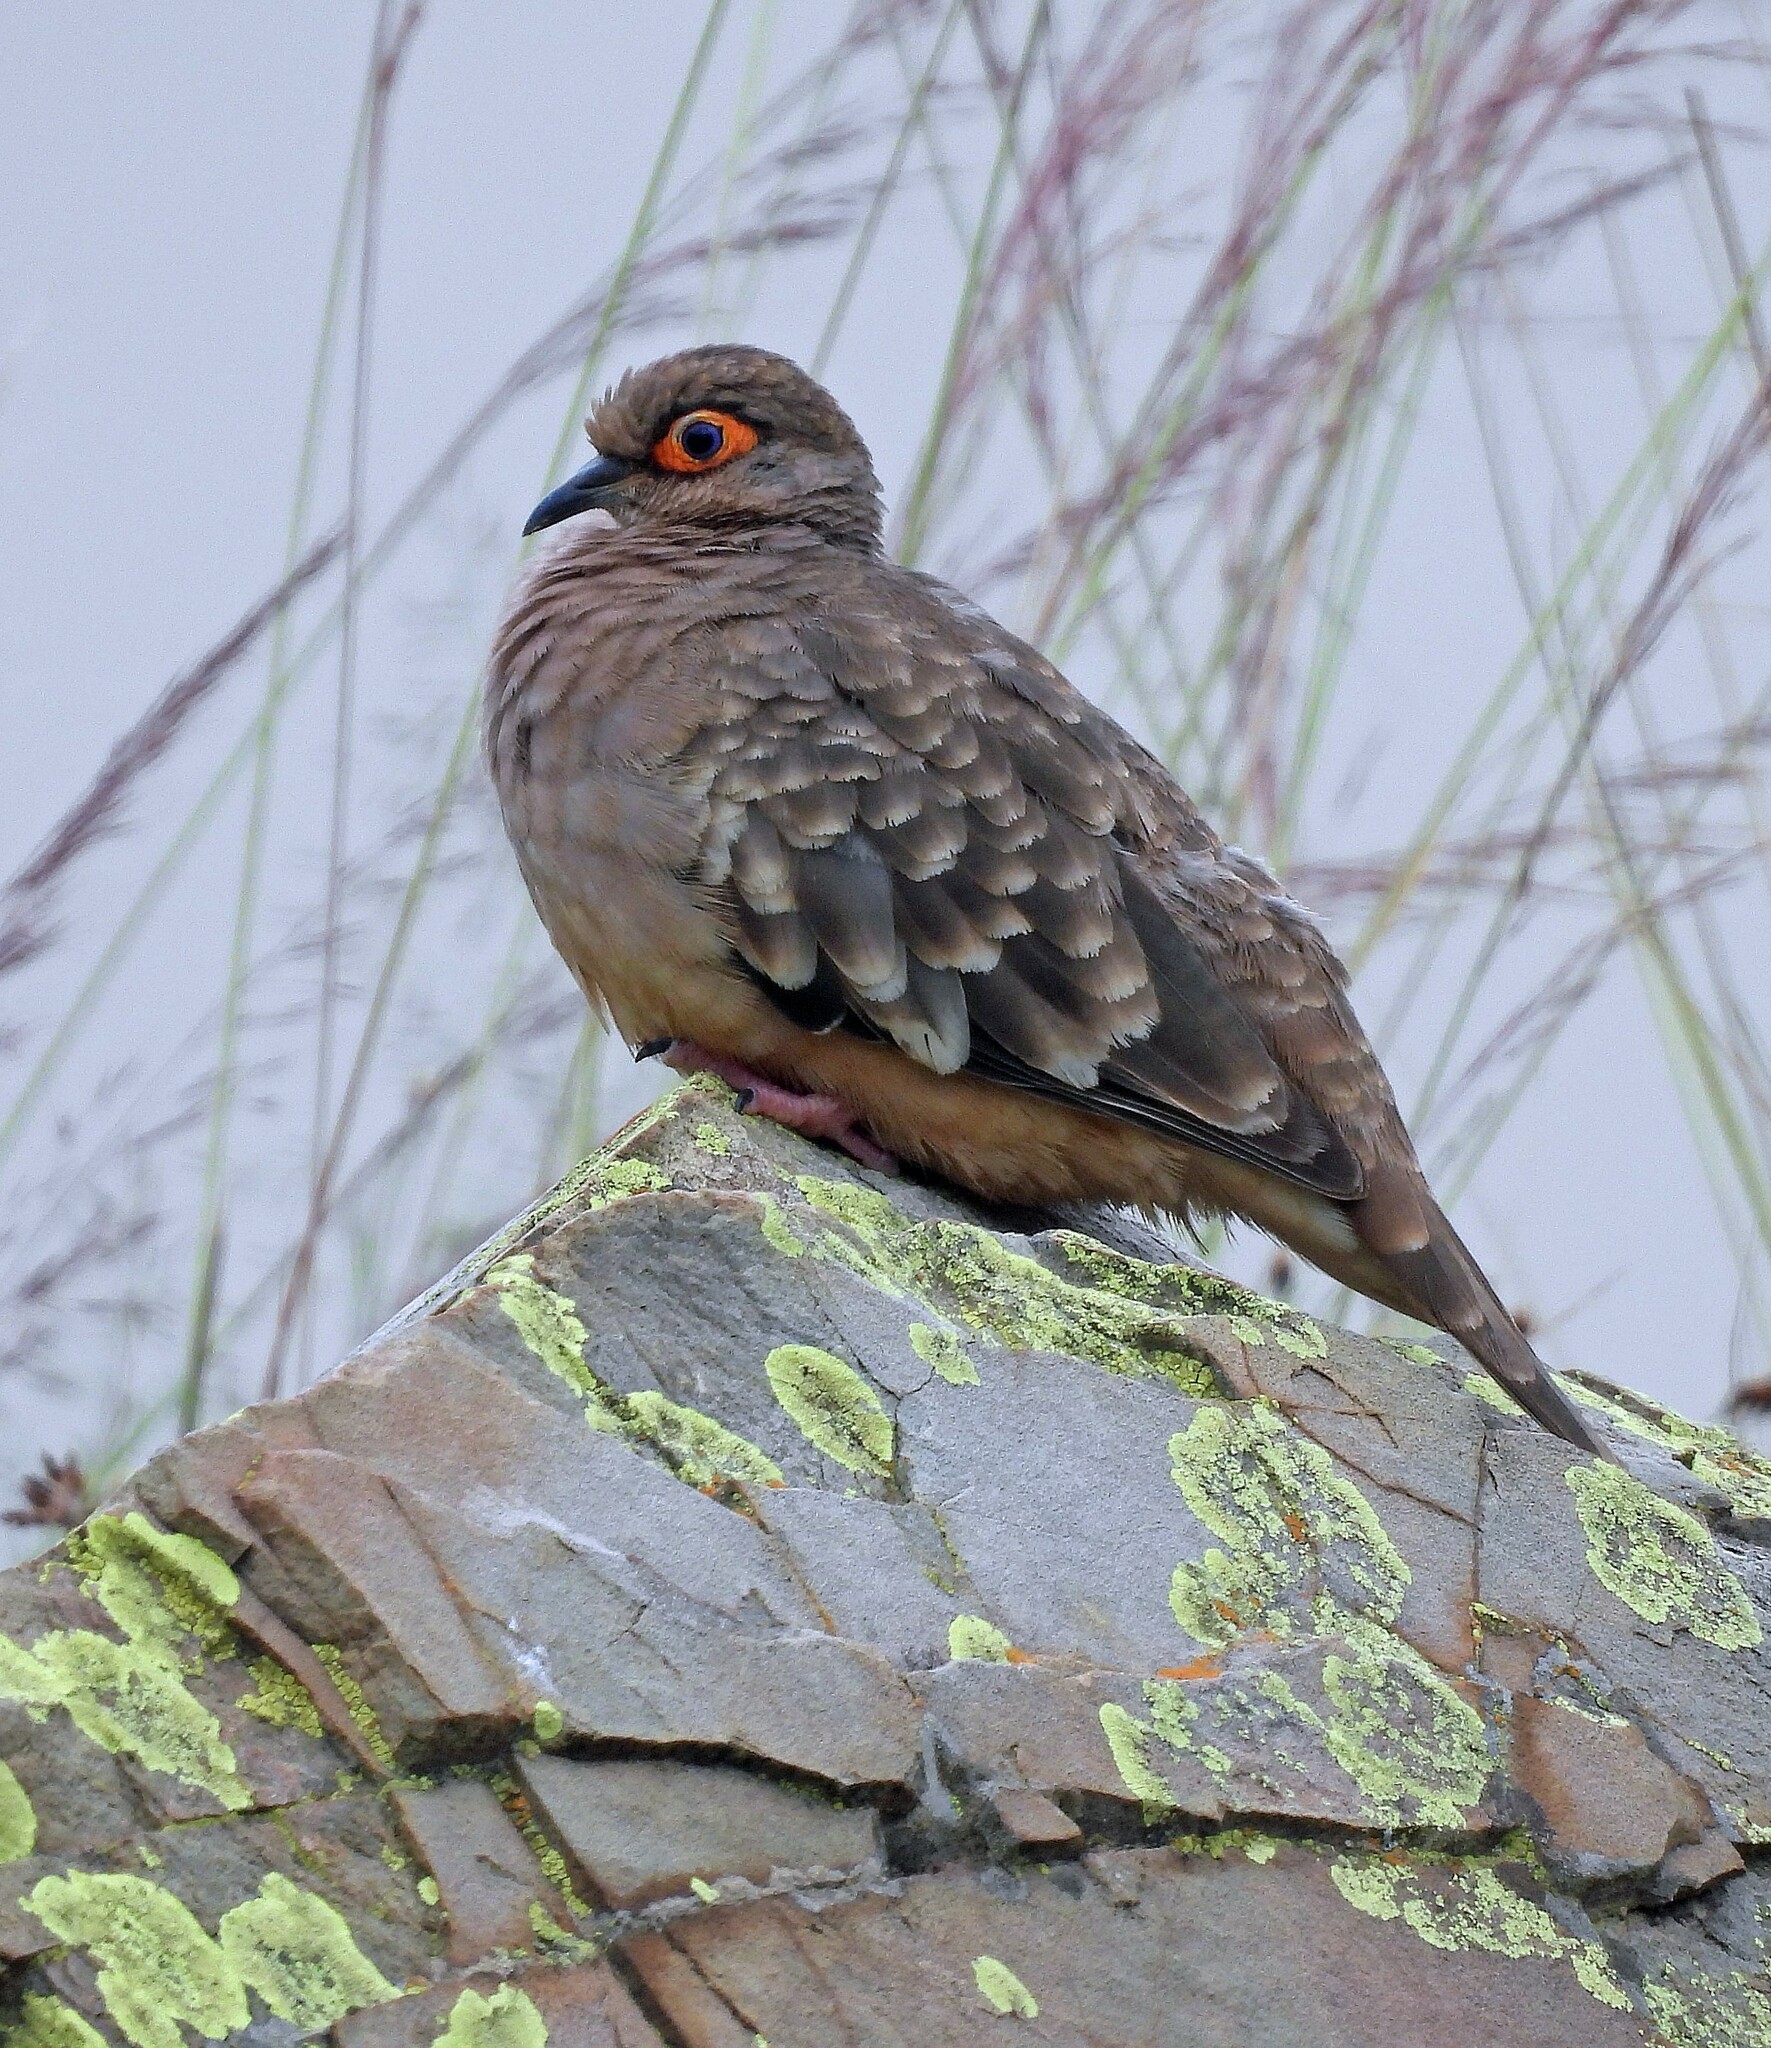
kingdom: Animalia
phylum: Chordata
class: Aves
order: Columbiformes
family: Columbidae
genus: Metriopelia
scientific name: Metriopelia ceciliae
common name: Bare-faced ground dove
